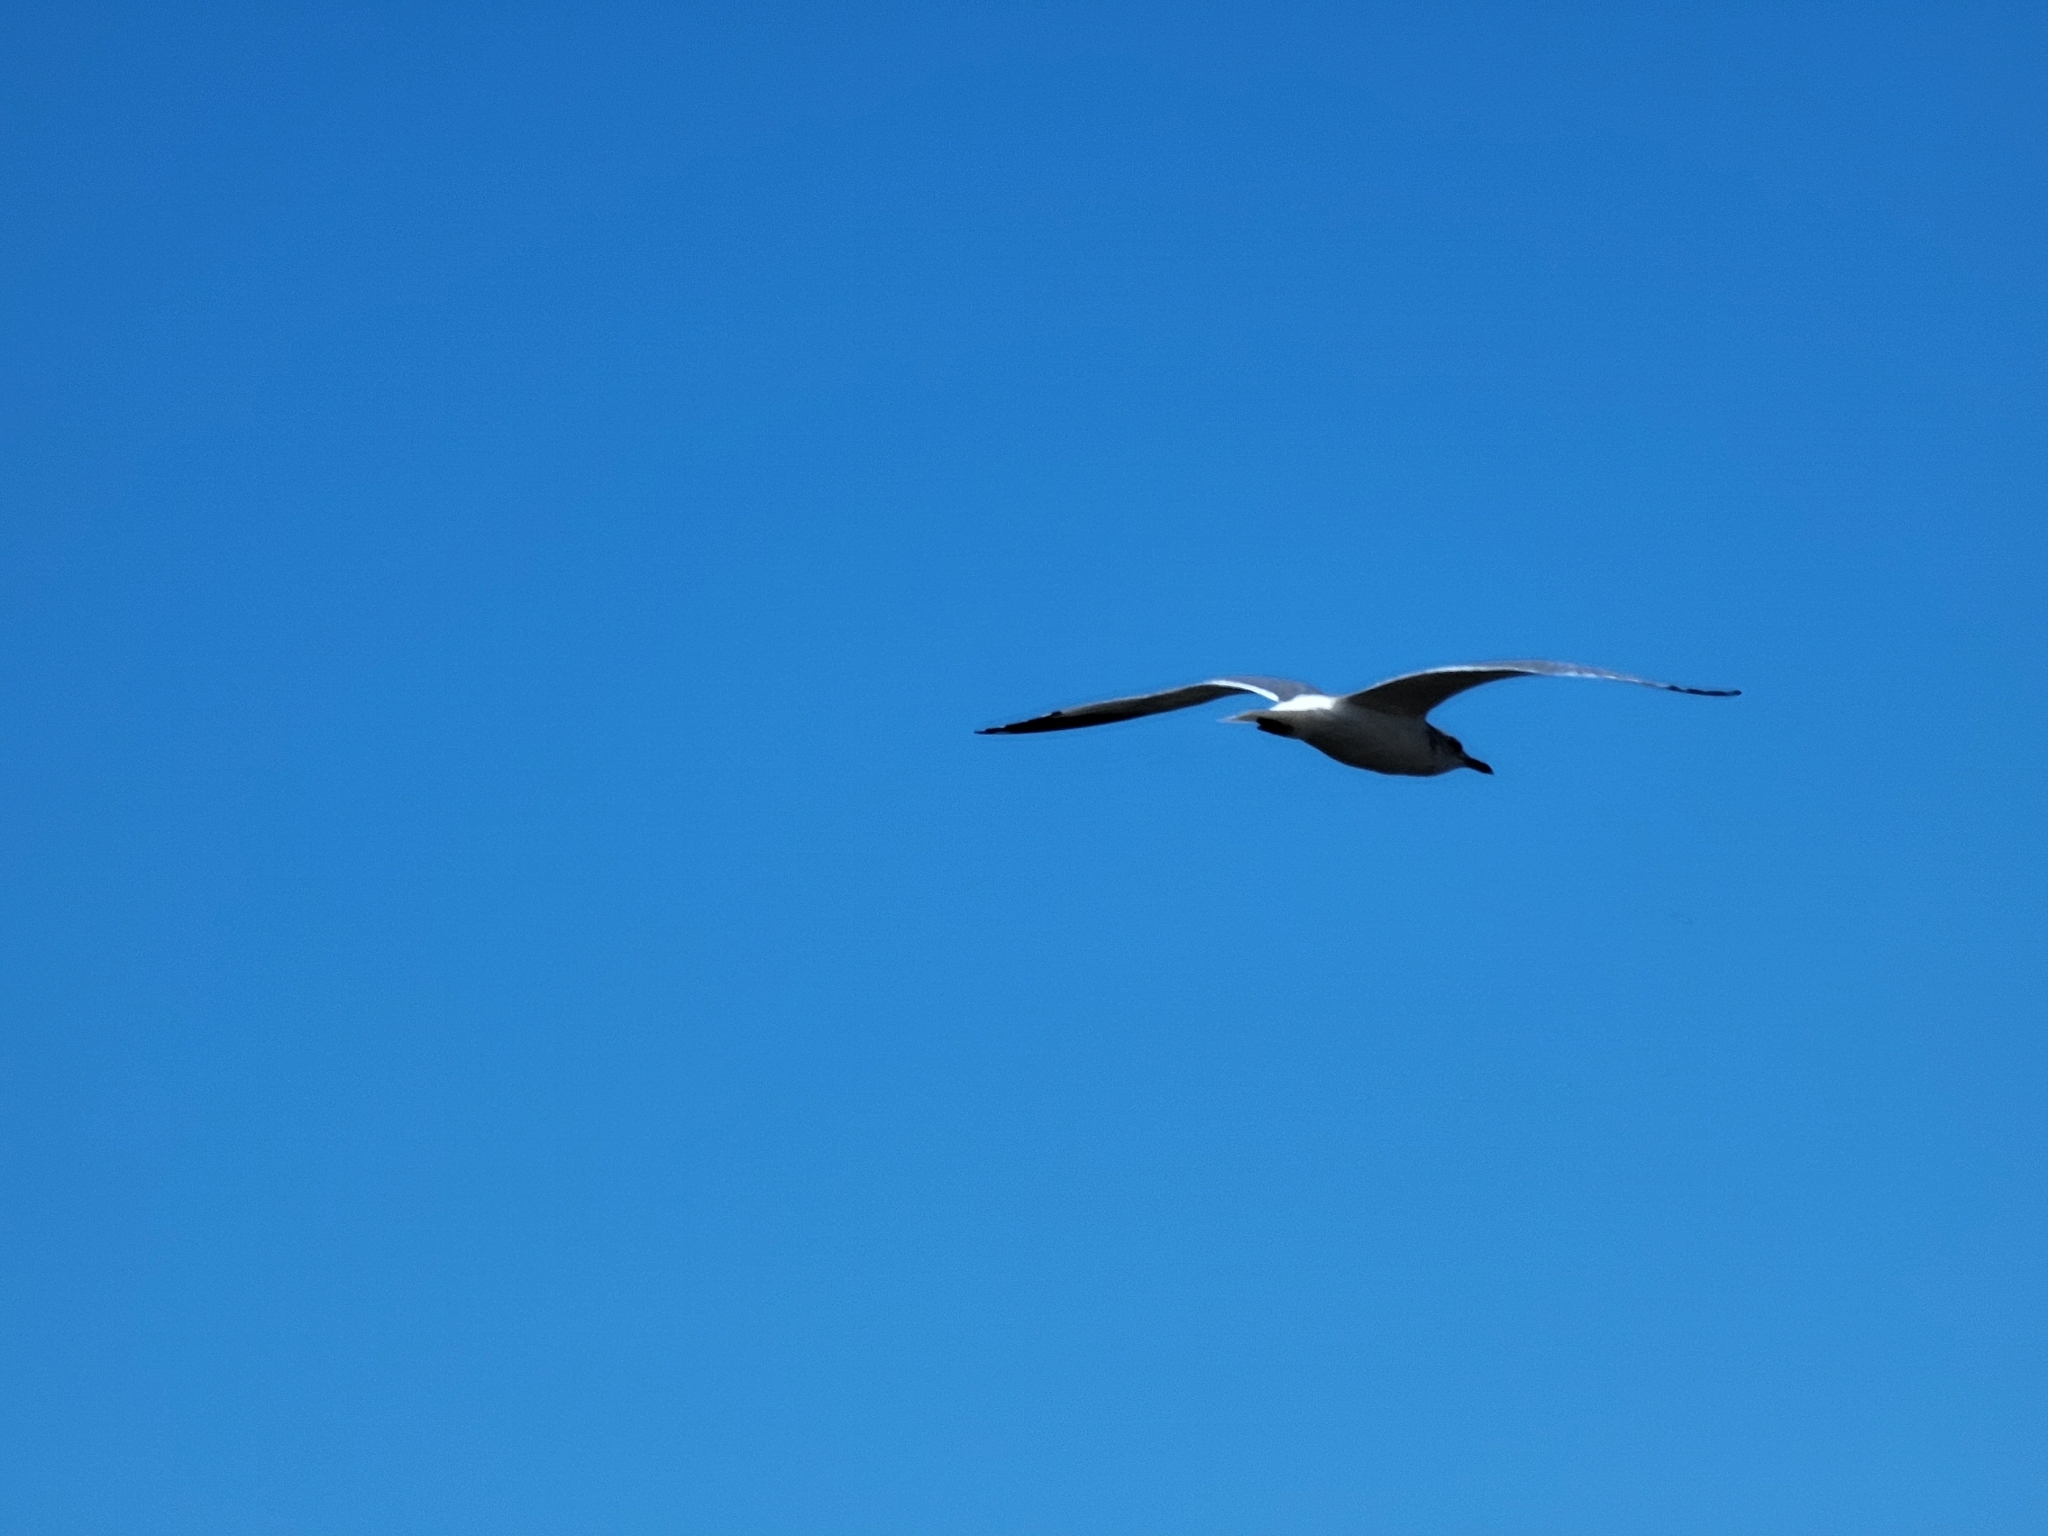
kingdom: Animalia
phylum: Chordata
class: Aves
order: Charadriiformes
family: Laridae
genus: Larus
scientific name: Larus
